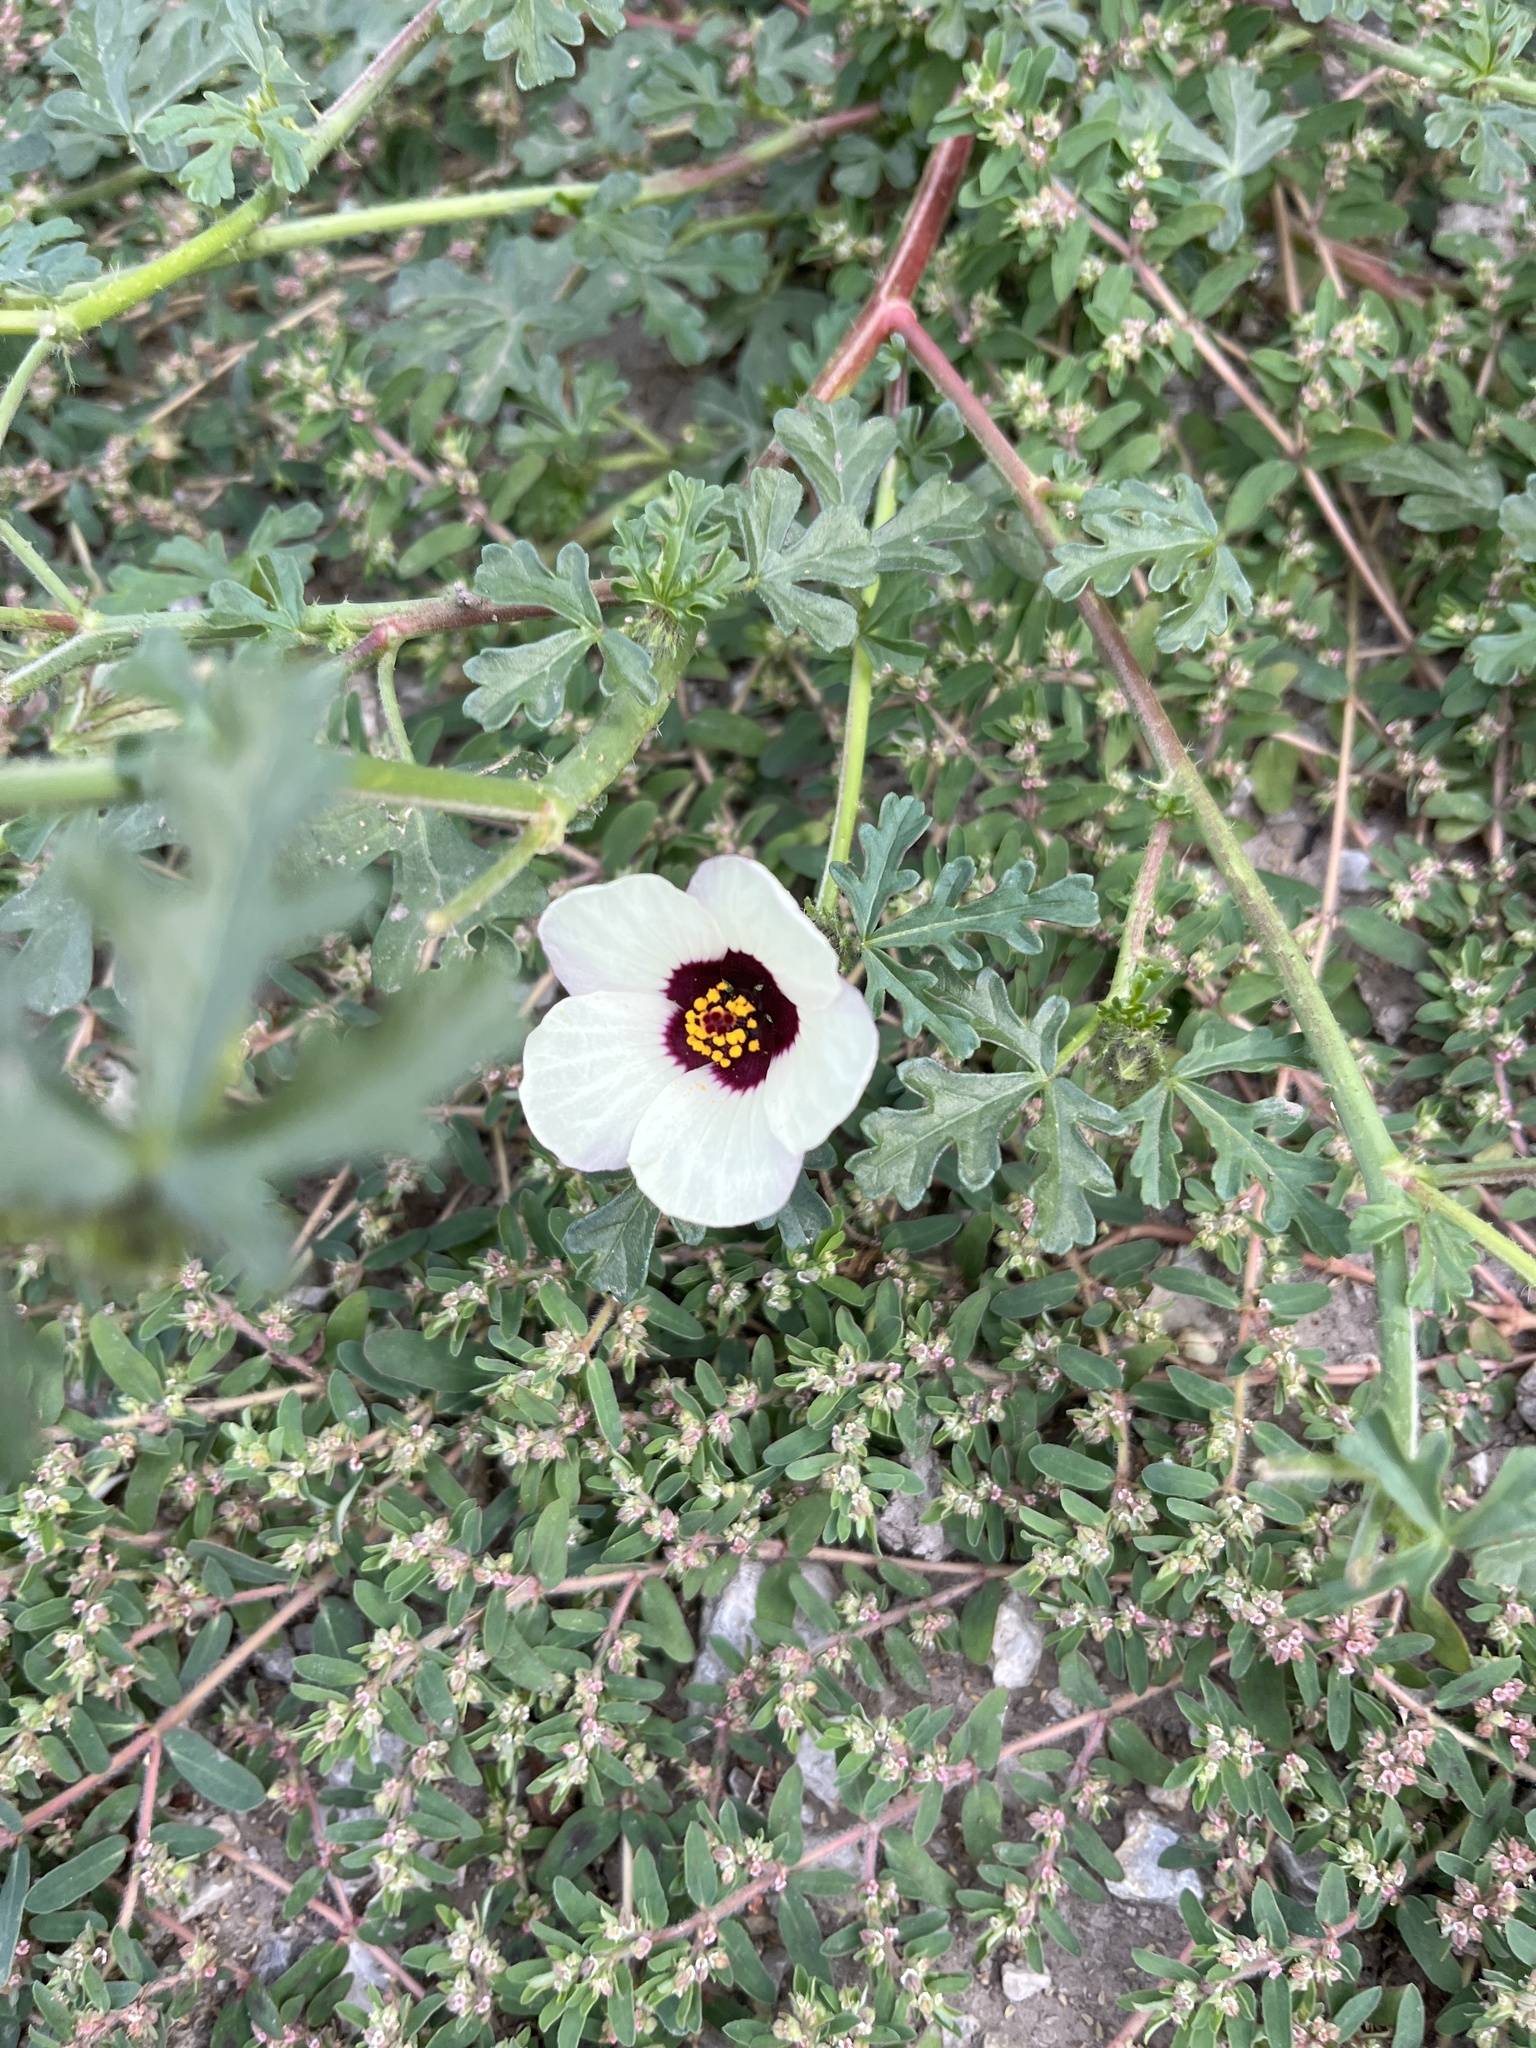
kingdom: Plantae
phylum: Tracheophyta
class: Magnoliopsida
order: Malvales
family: Malvaceae
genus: Hibiscus
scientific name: Hibiscus trionum
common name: Bladder ketmia
